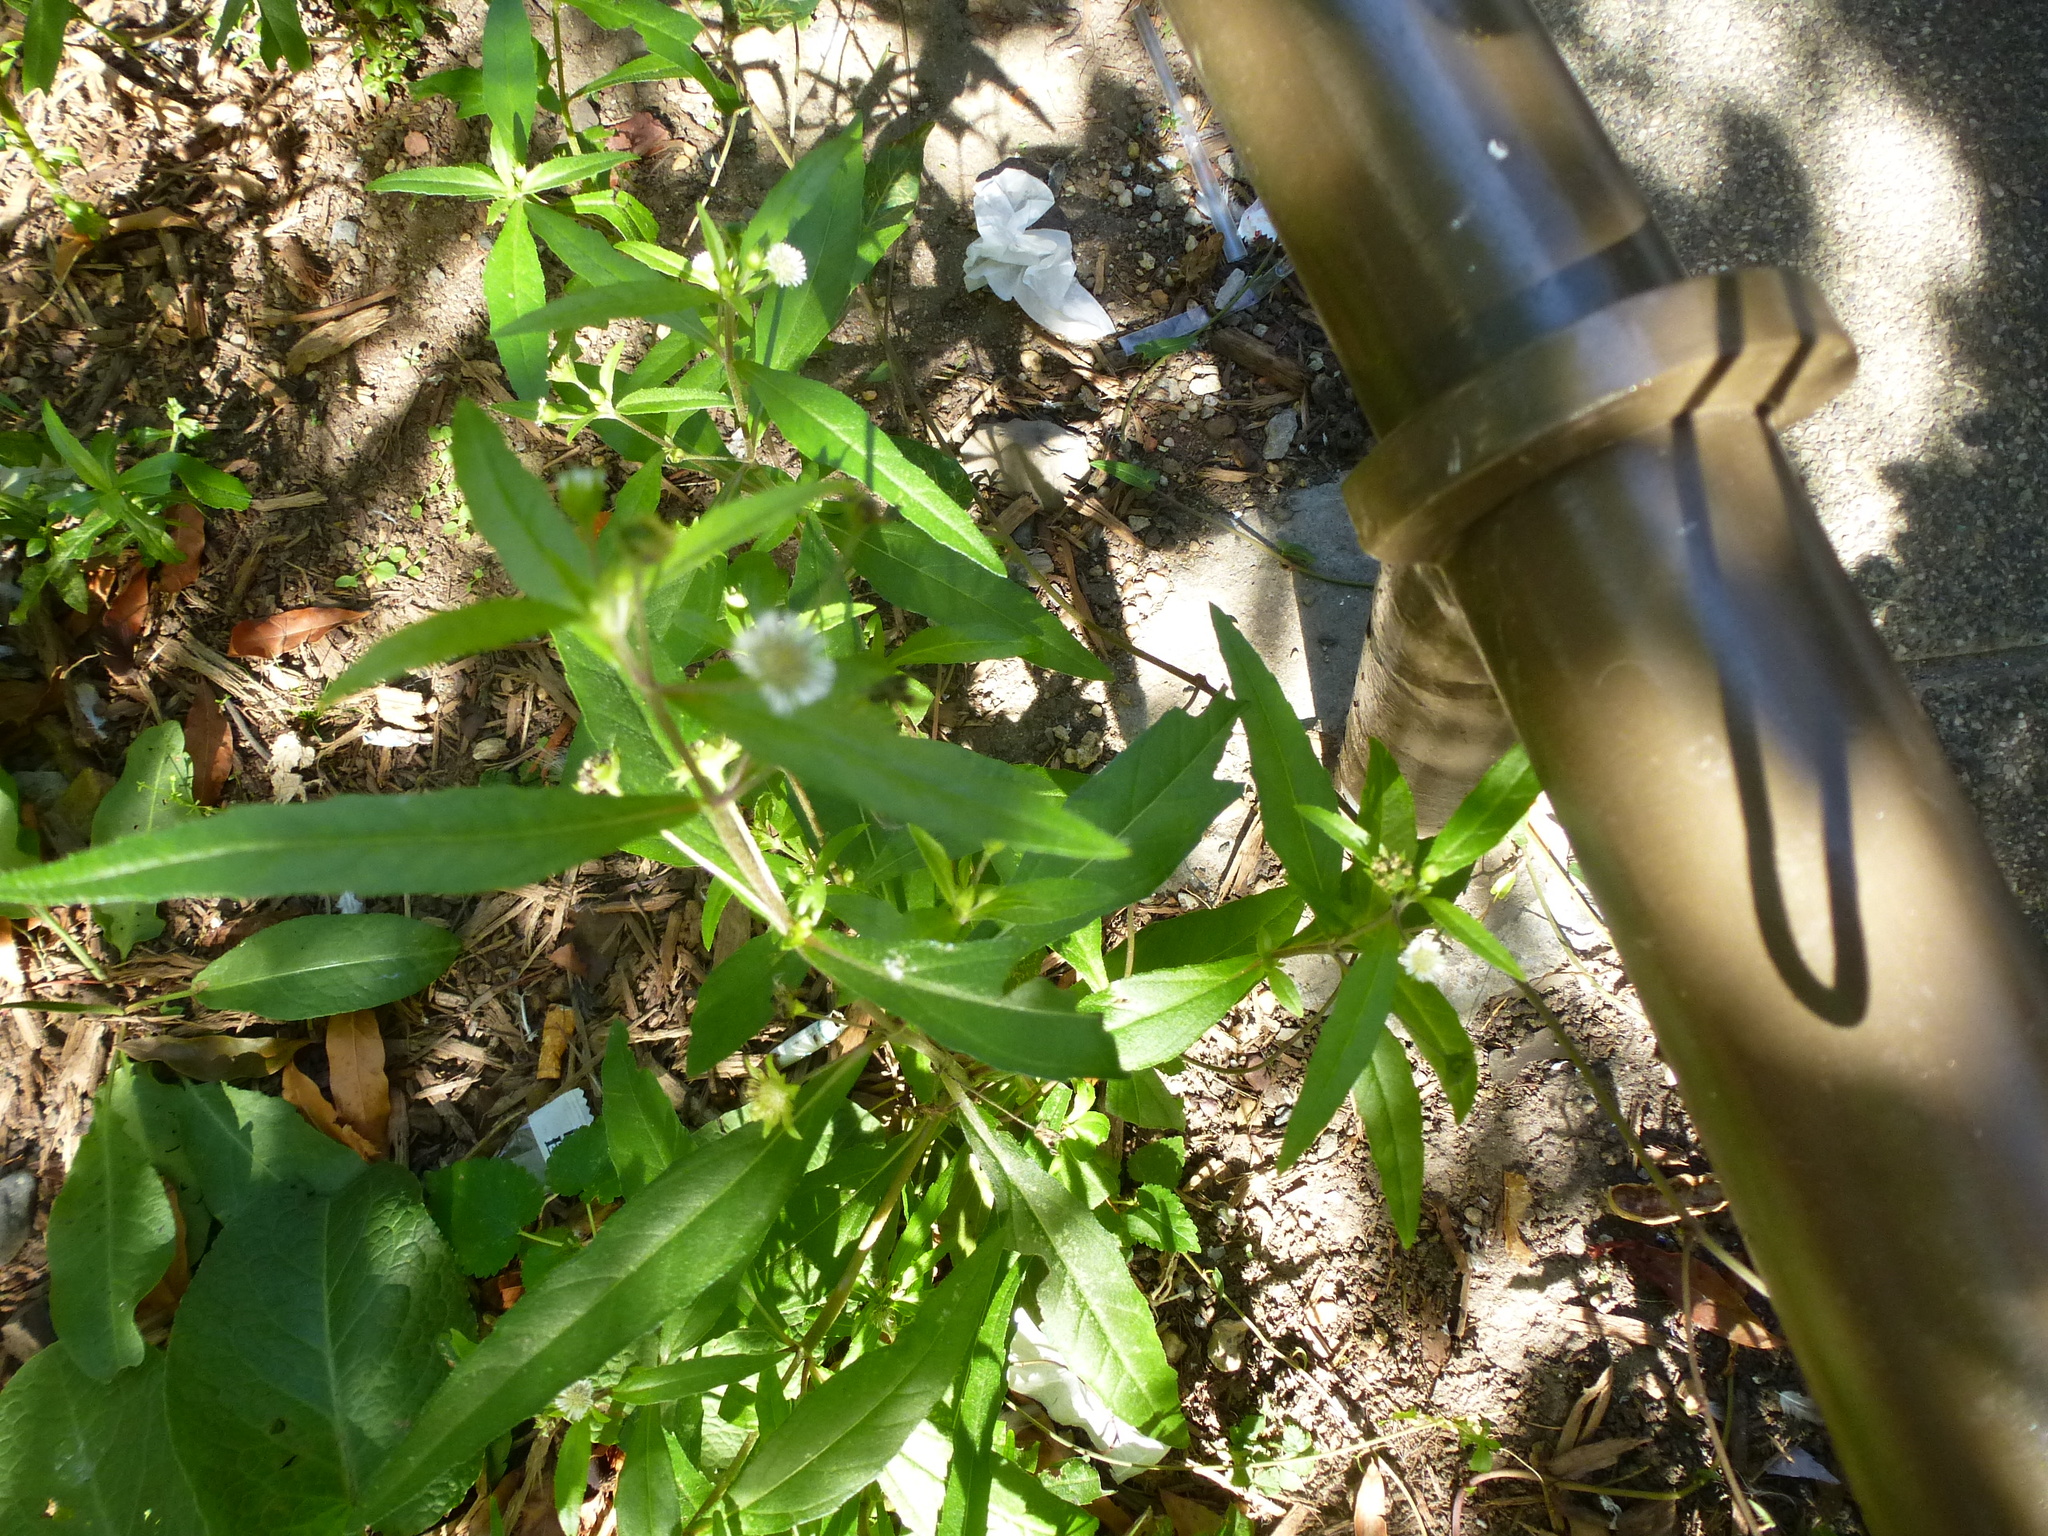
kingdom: Plantae
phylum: Tracheophyta
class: Magnoliopsida
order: Asterales
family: Asteraceae
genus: Eclipta
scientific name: Eclipta prostrata
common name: False daisy
